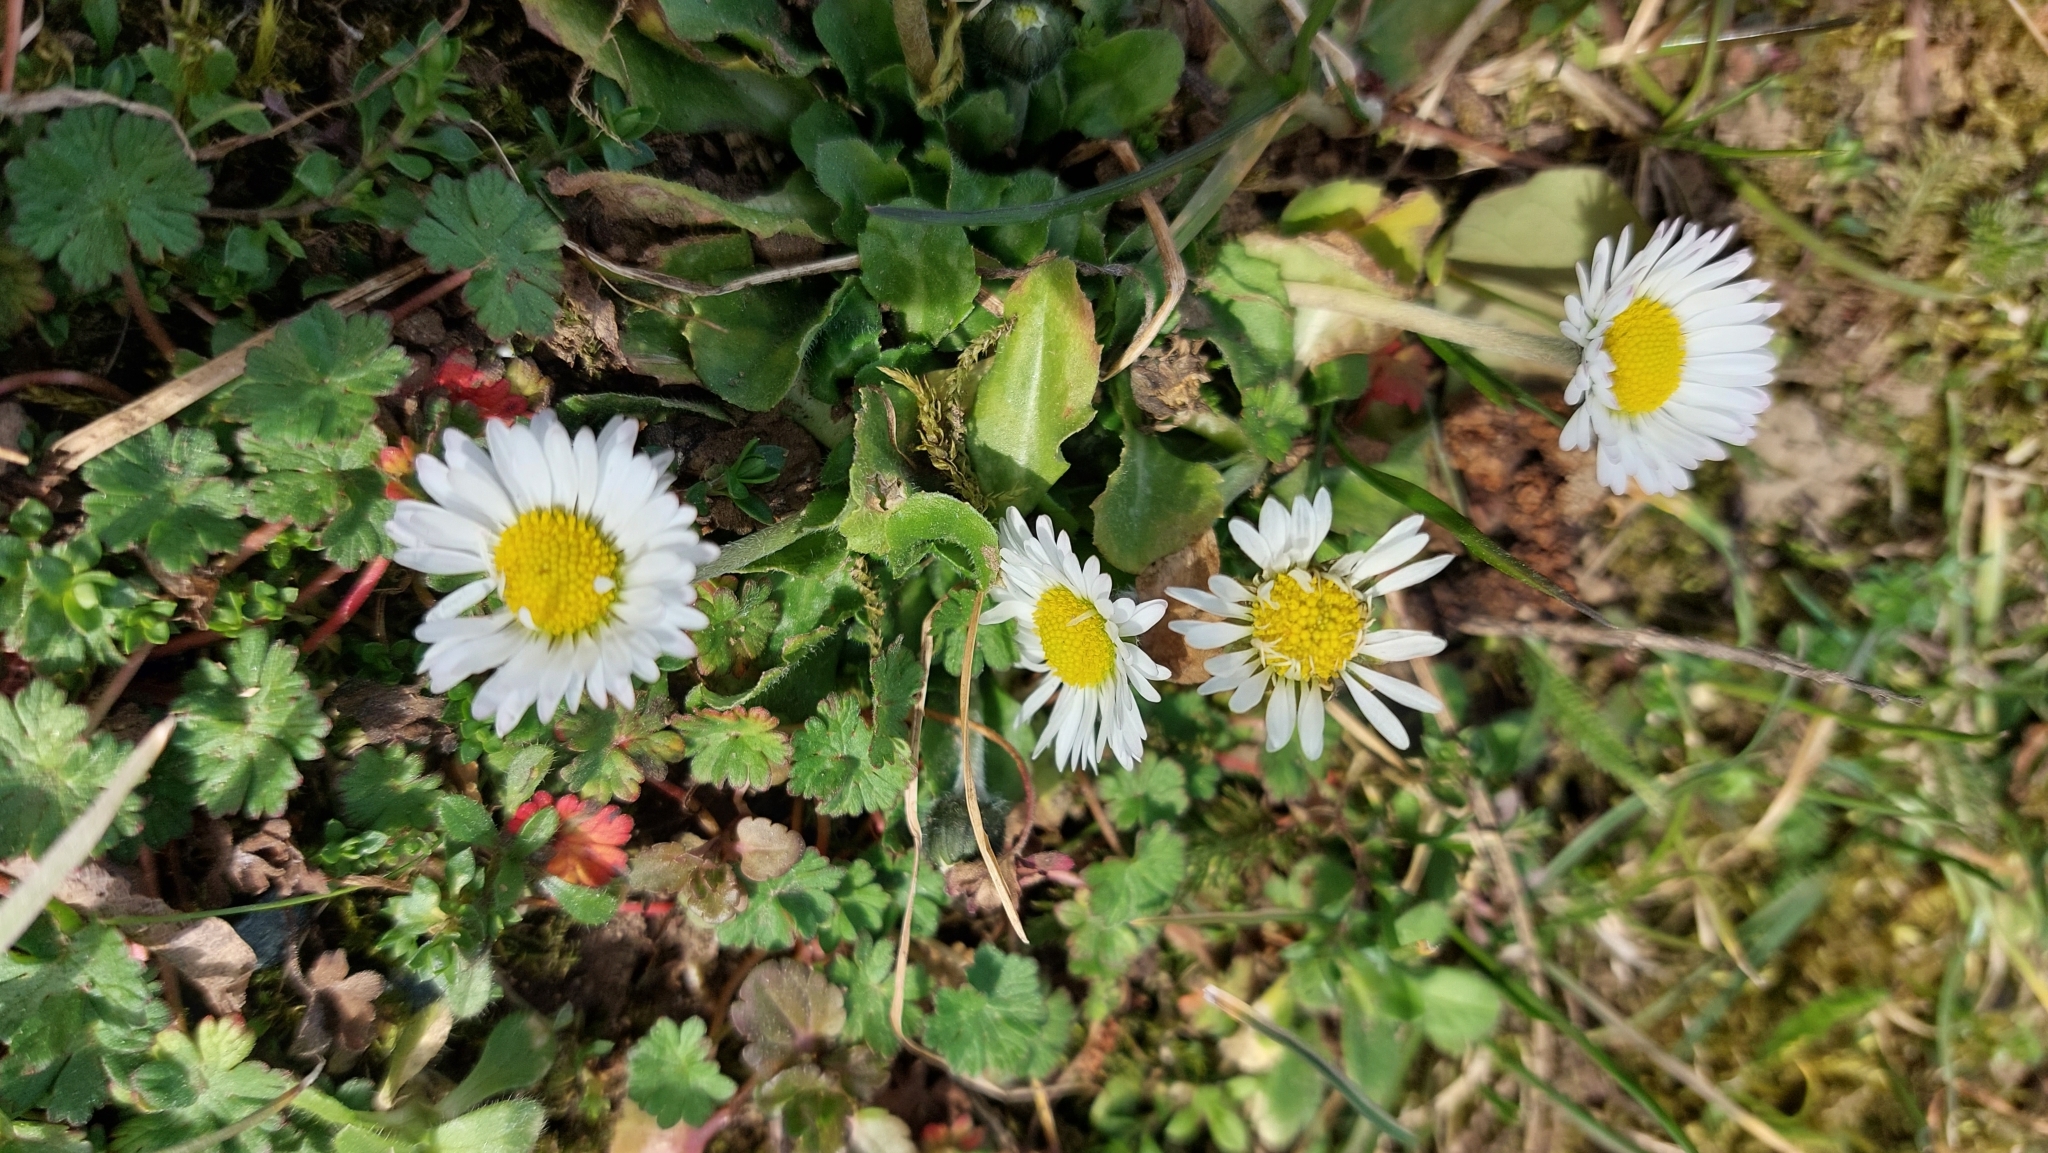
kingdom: Plantae
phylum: Tracheophyta
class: Magnoliopsida
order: Asterales
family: Asteraceae
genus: Bellis
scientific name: Bellis perennis
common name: Lawndaisy
